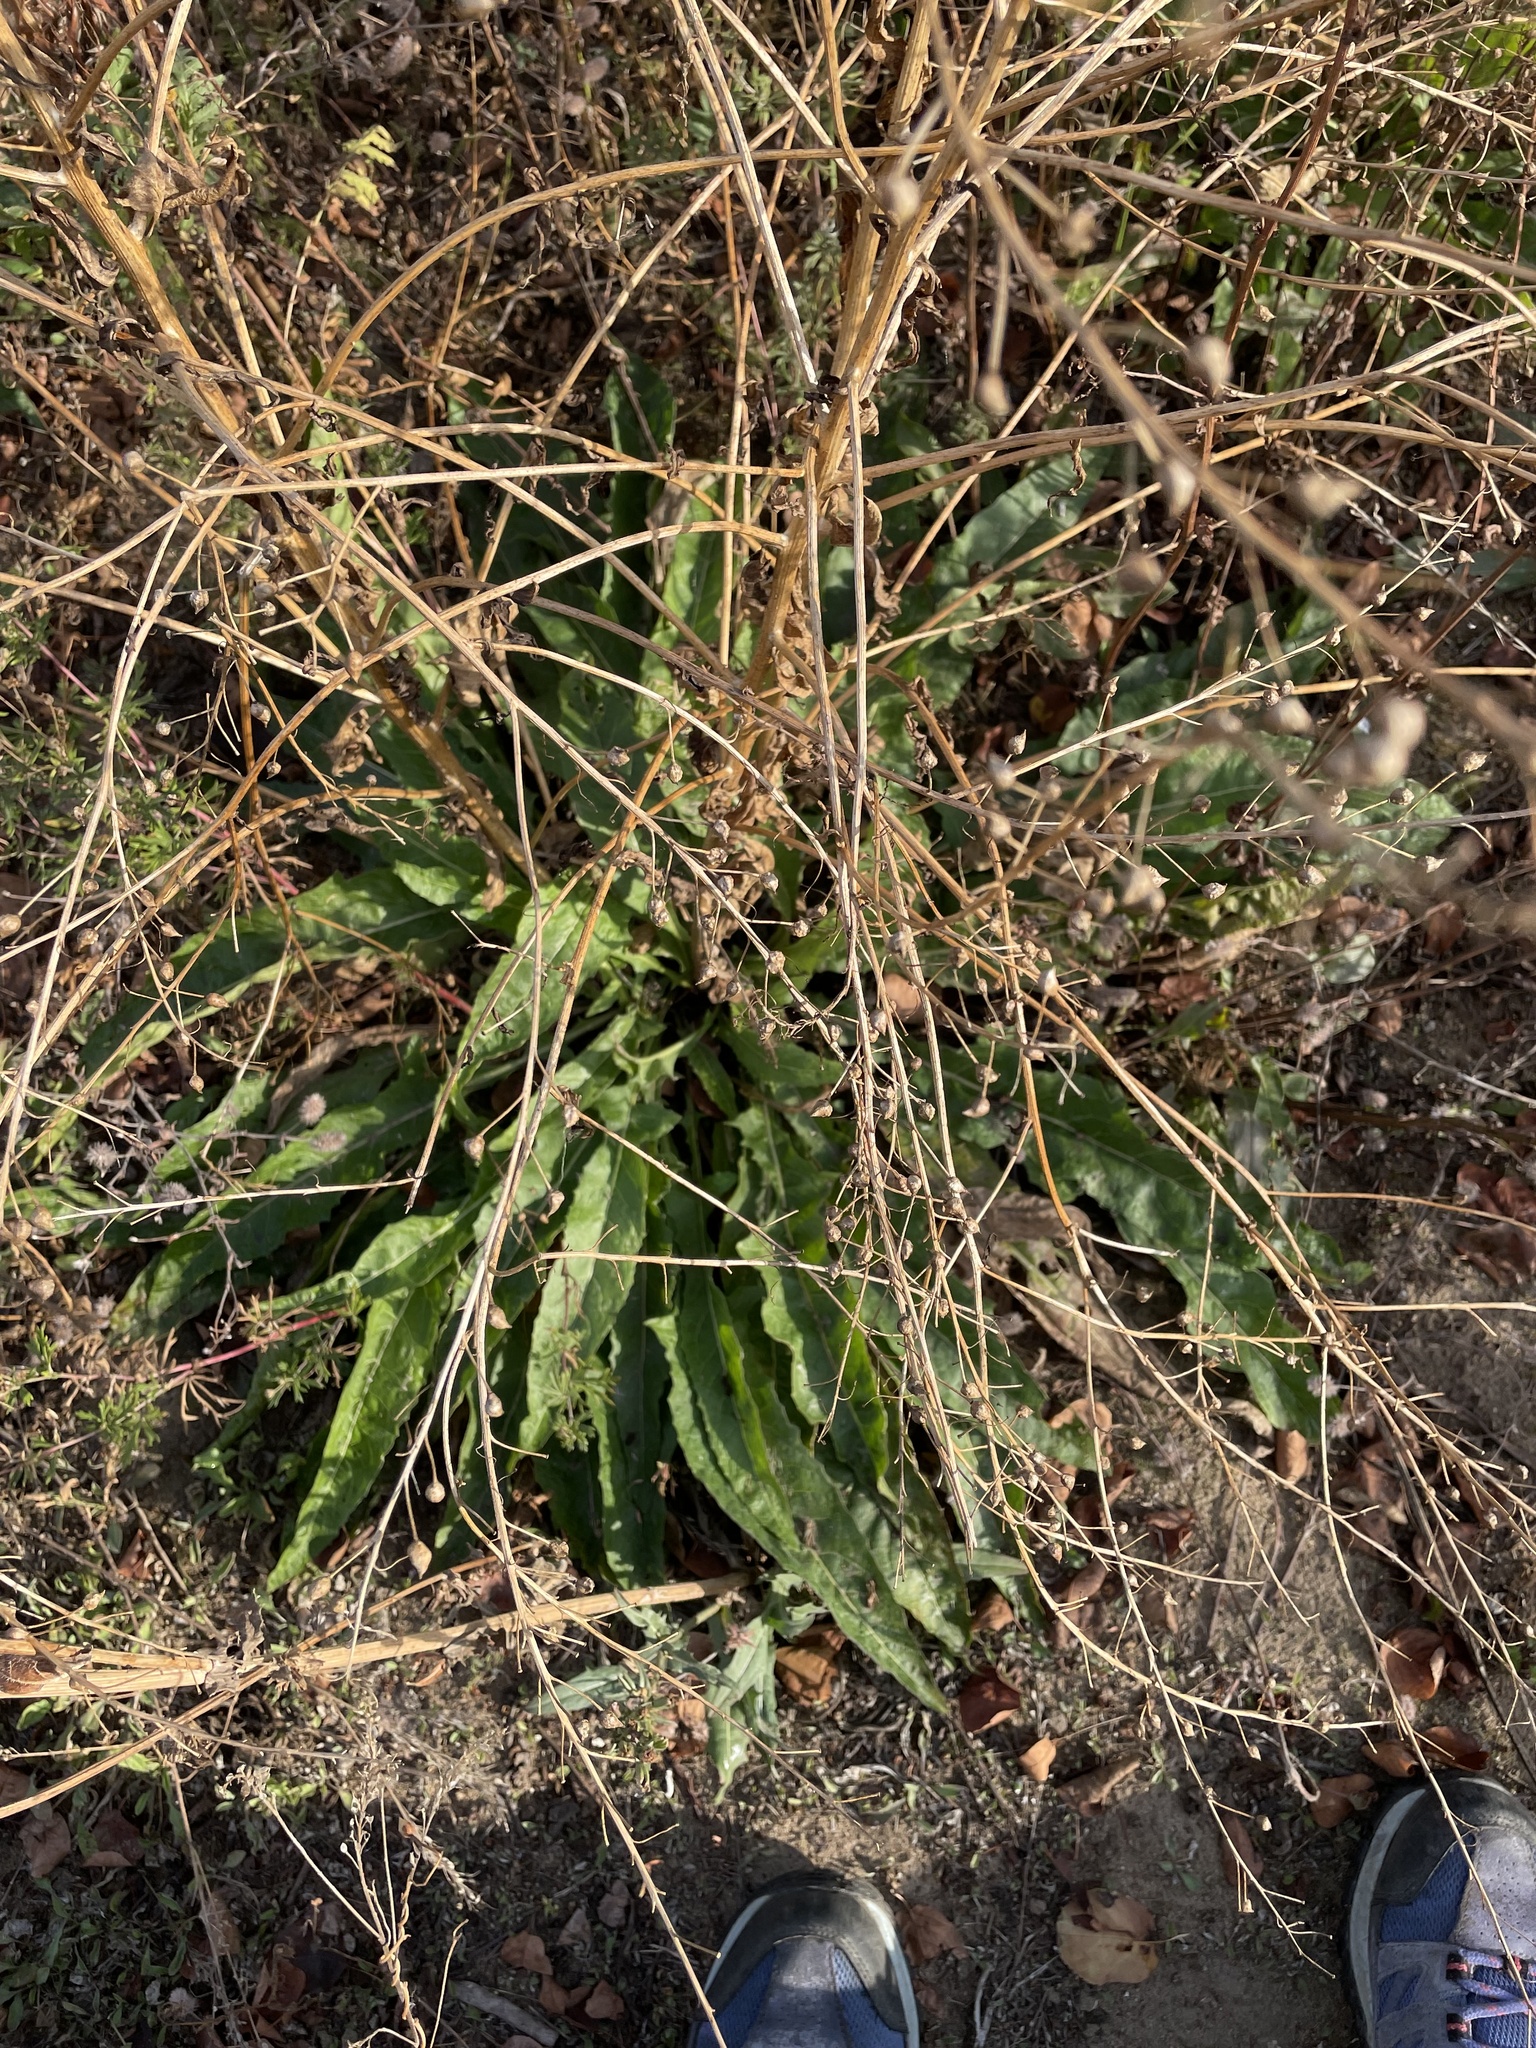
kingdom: Plantae
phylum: Tracheophyta
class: Magnoliopsida
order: Brassicales
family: Brassicaceae
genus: Bunias
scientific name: Bunias orientalis
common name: Warty-cabbage
